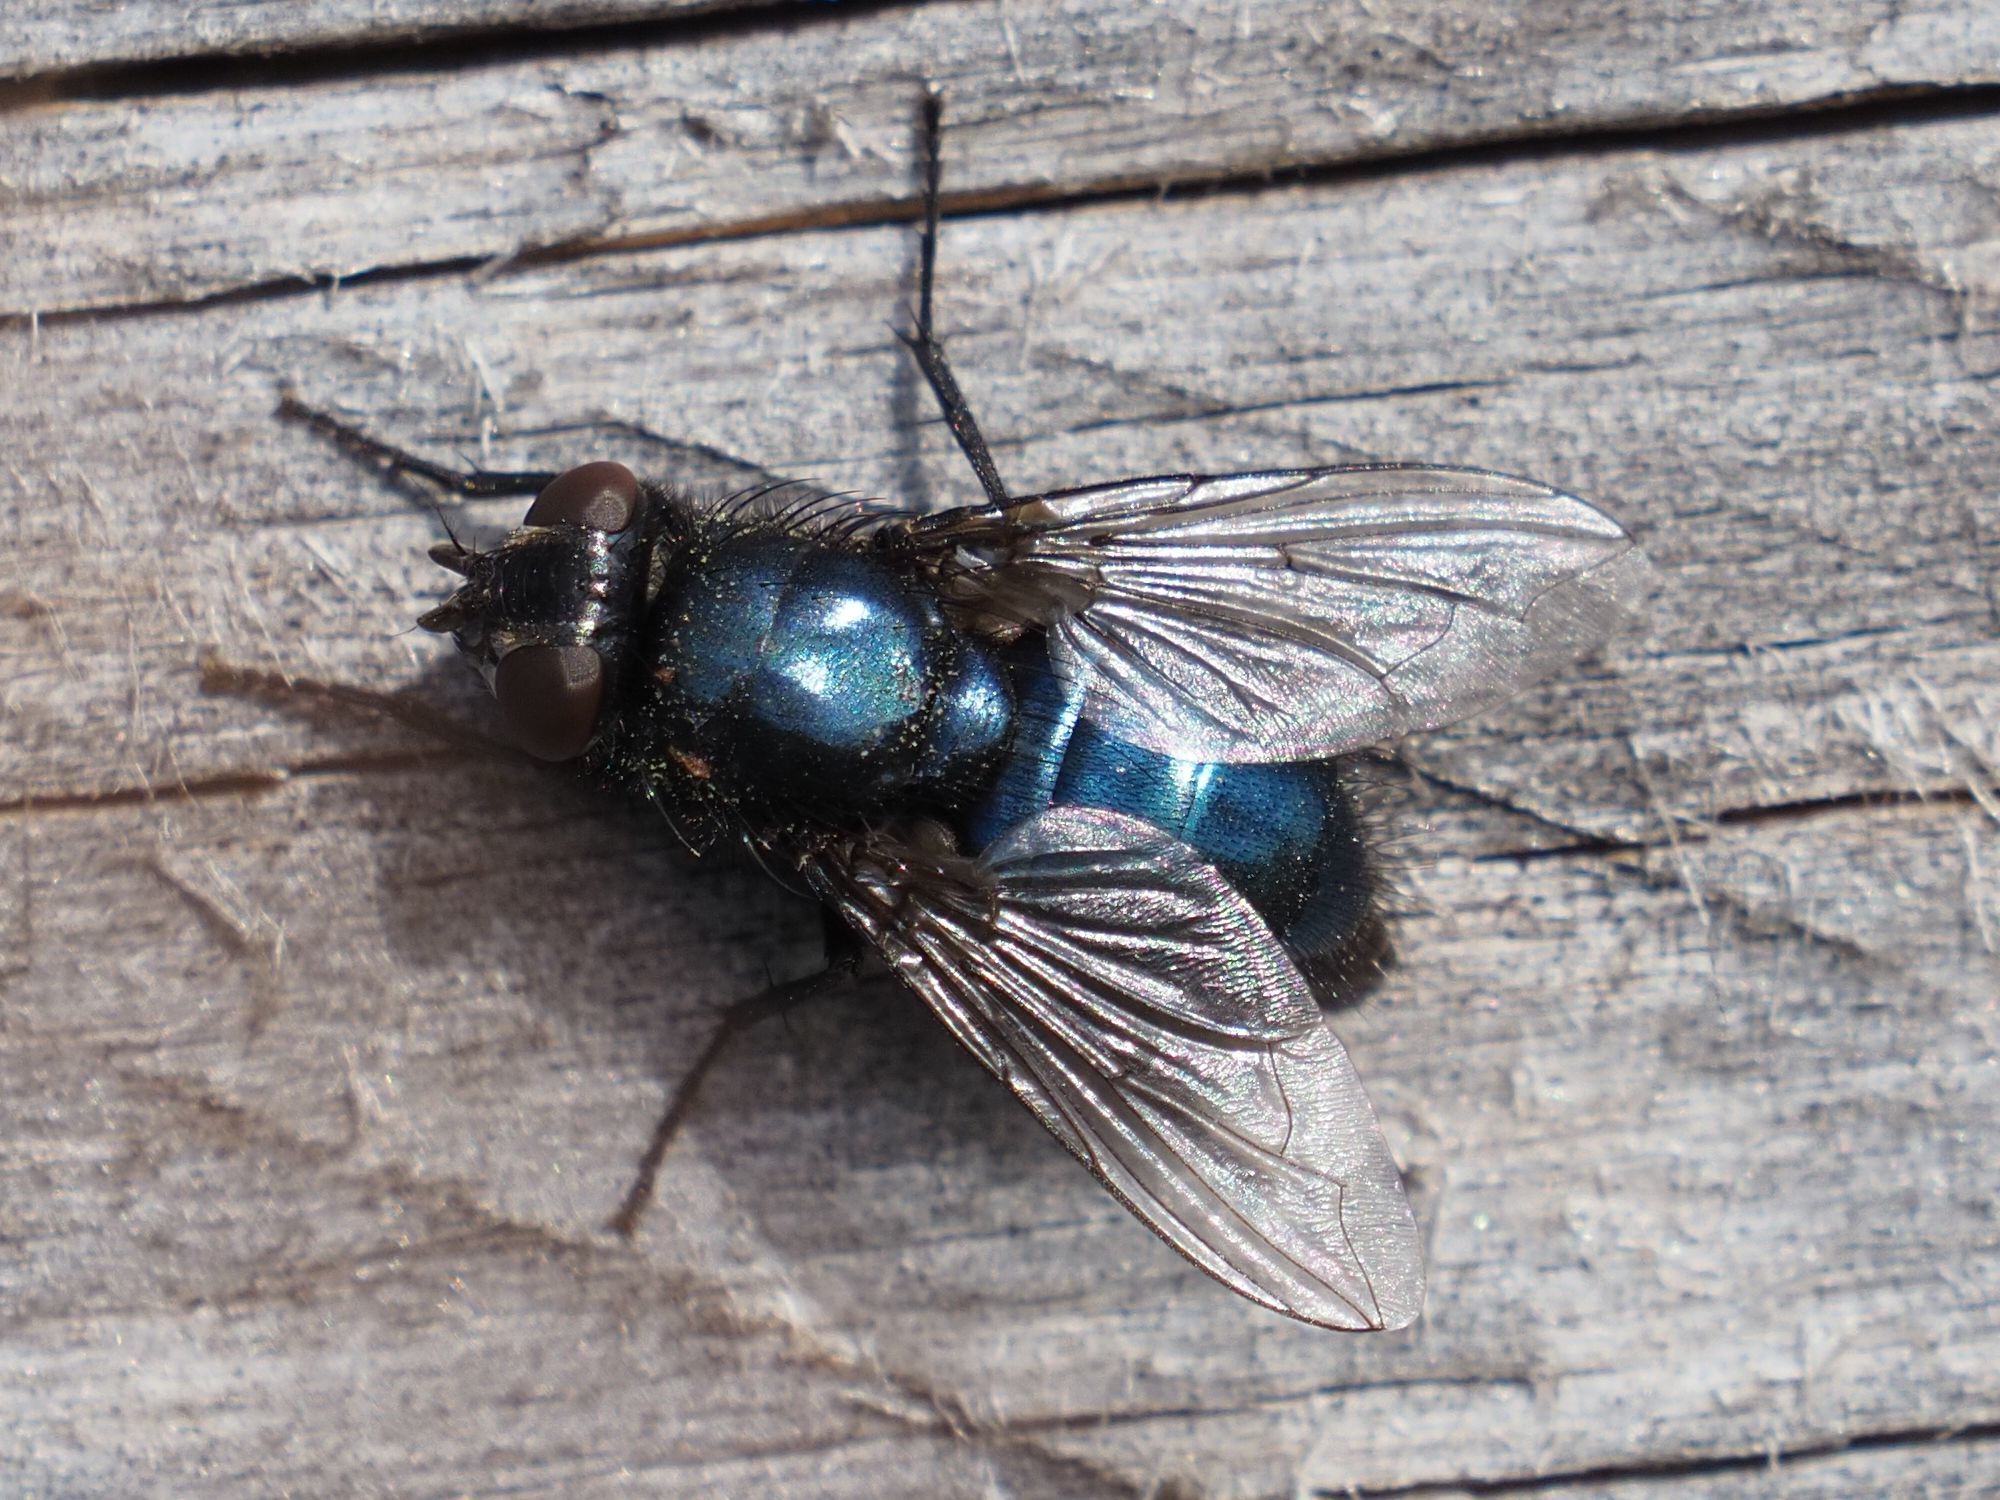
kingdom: Animalia
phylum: Arthropoda
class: Insecta
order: Diptera
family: Calliphoridae
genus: Protophormia
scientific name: Protophormia terraenovae
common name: Blackbottle
